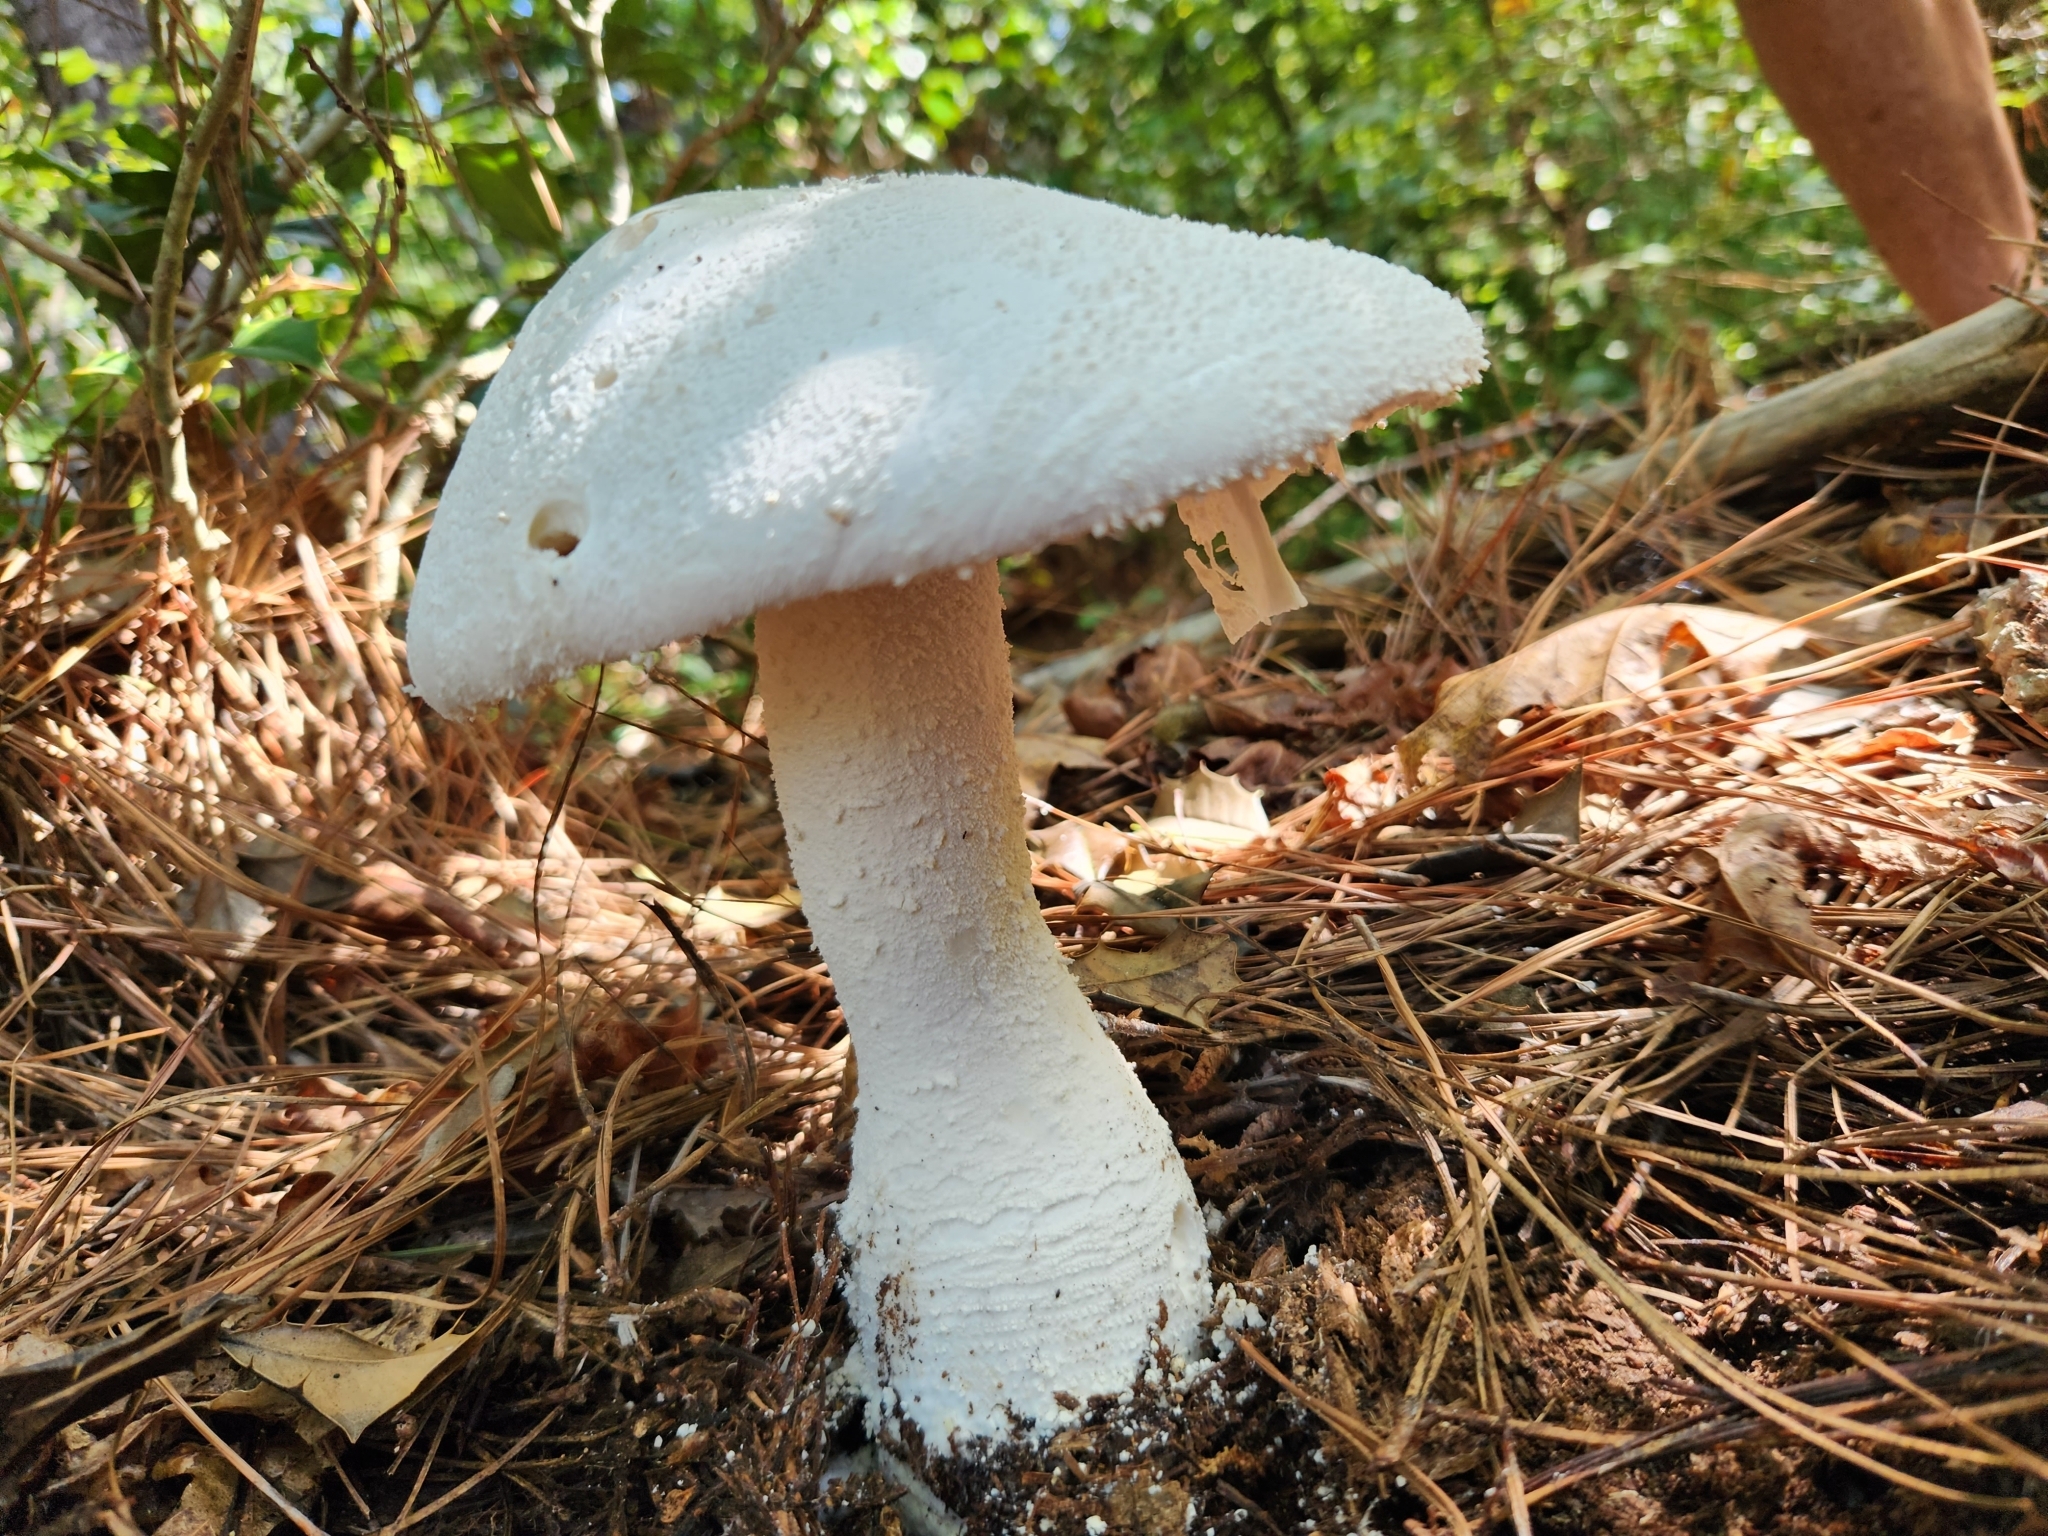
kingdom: Fungi
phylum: Basidiomycota
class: Agaricomycetes
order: Agaricales
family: Amanitaceae
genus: Amanita
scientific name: Amanita polypyramis
